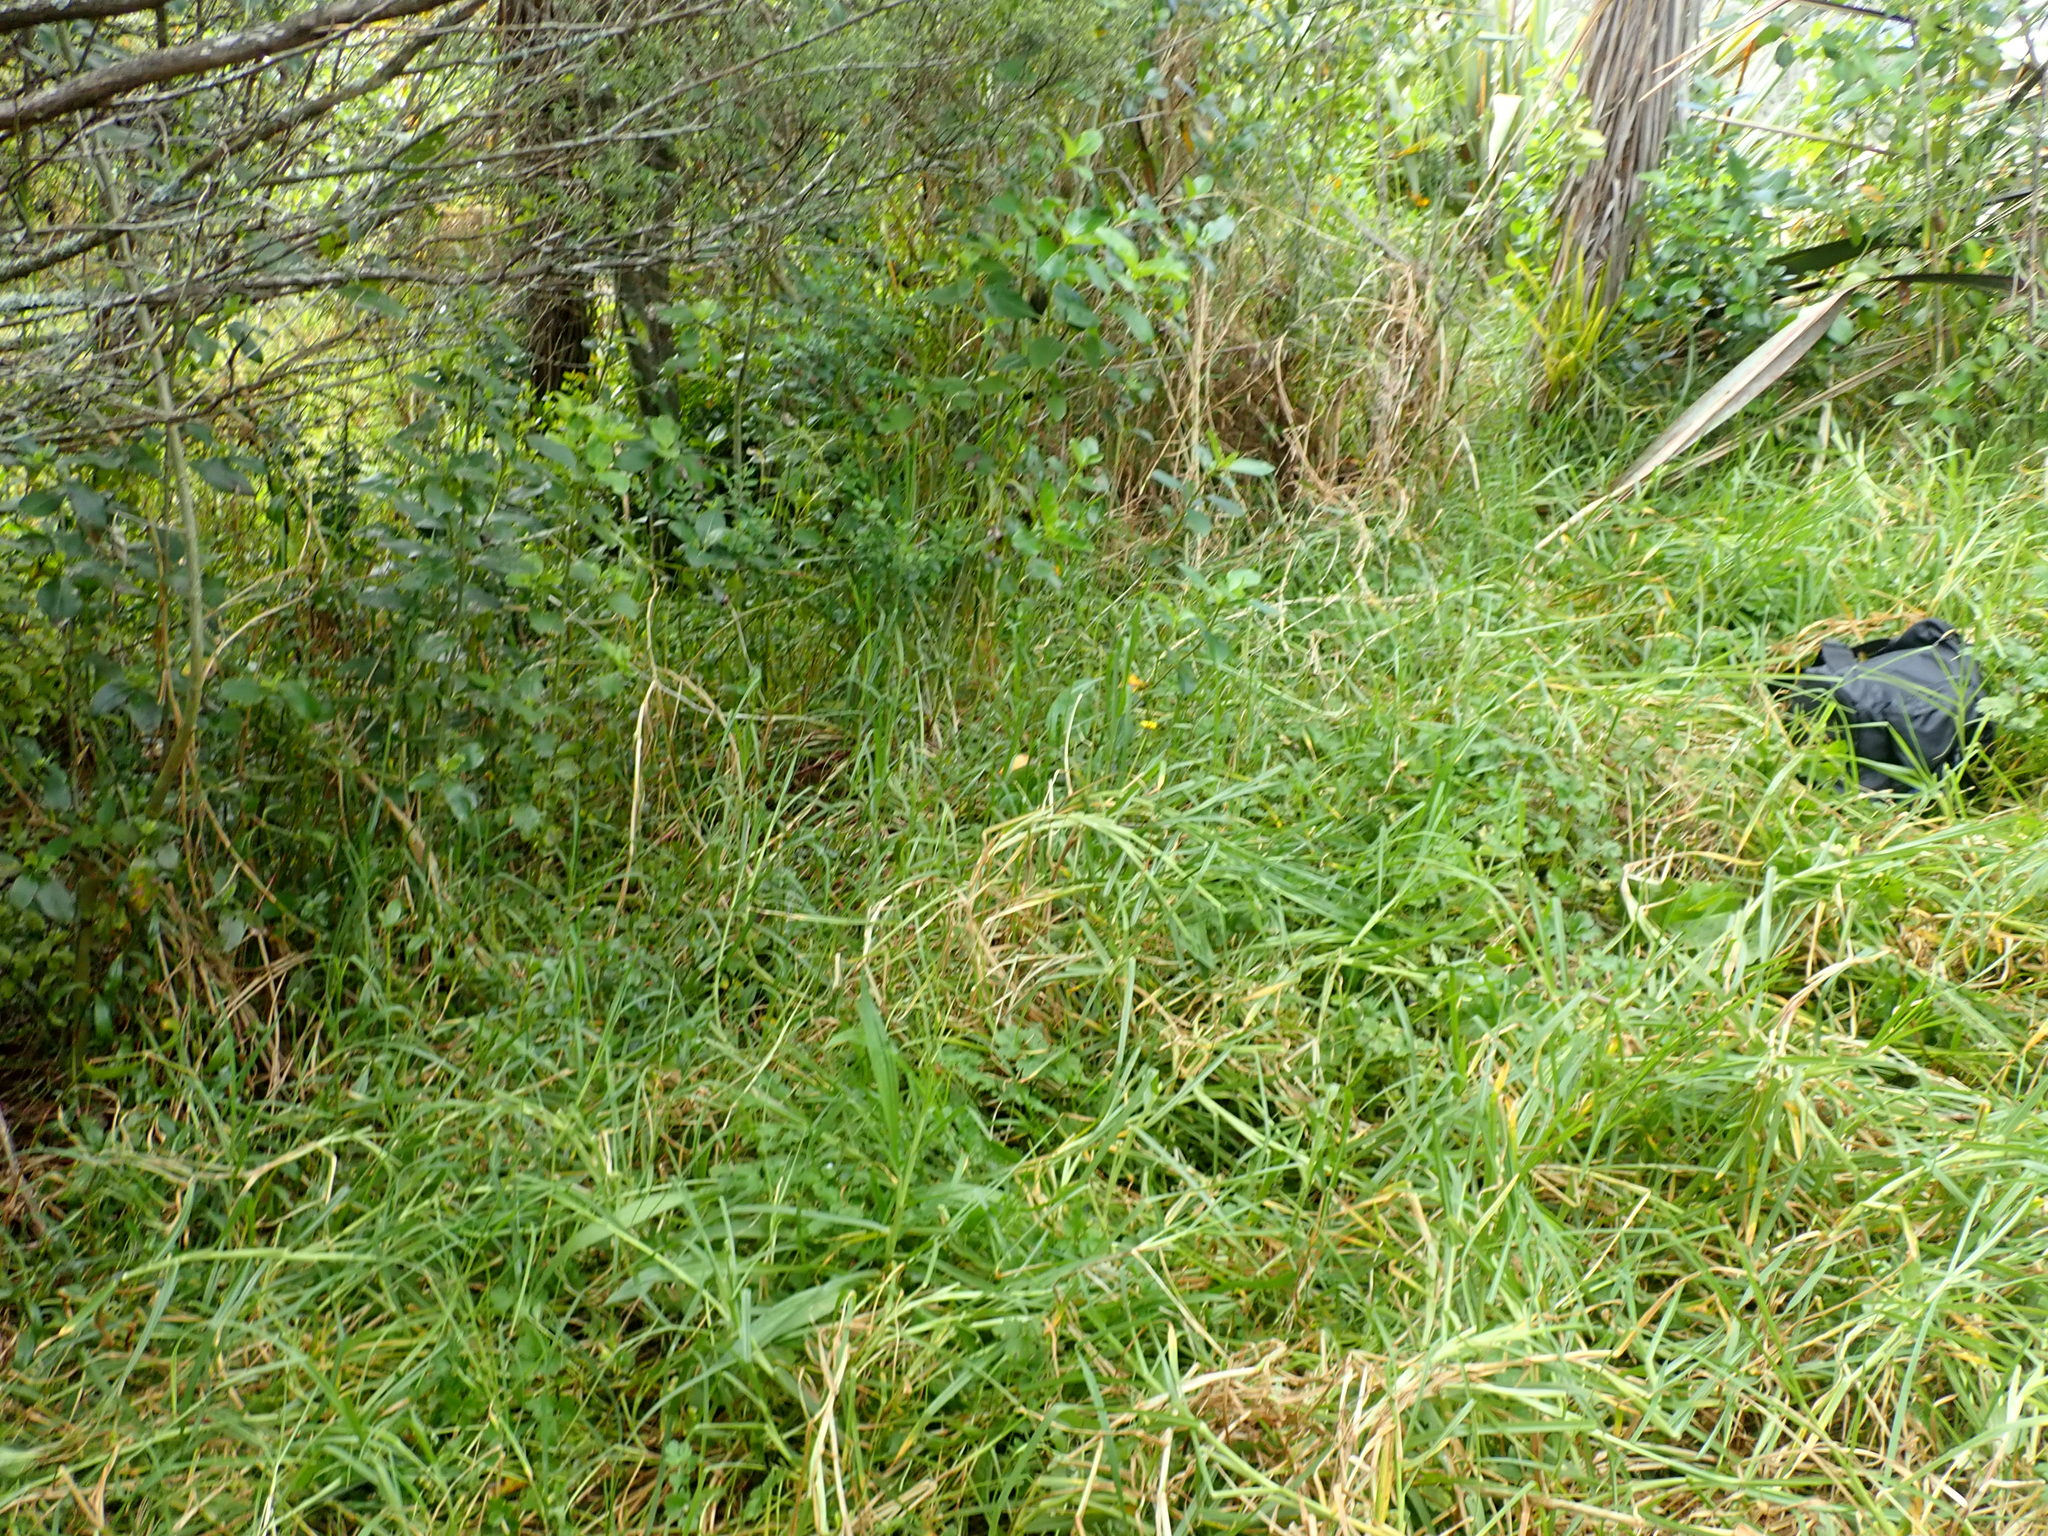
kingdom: Plantae
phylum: Tracheophyta
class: Liliopsida
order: Poales
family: Poaceae
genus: Cenchrus
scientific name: Cenchrus clandestinus
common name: Kikuyugrass
